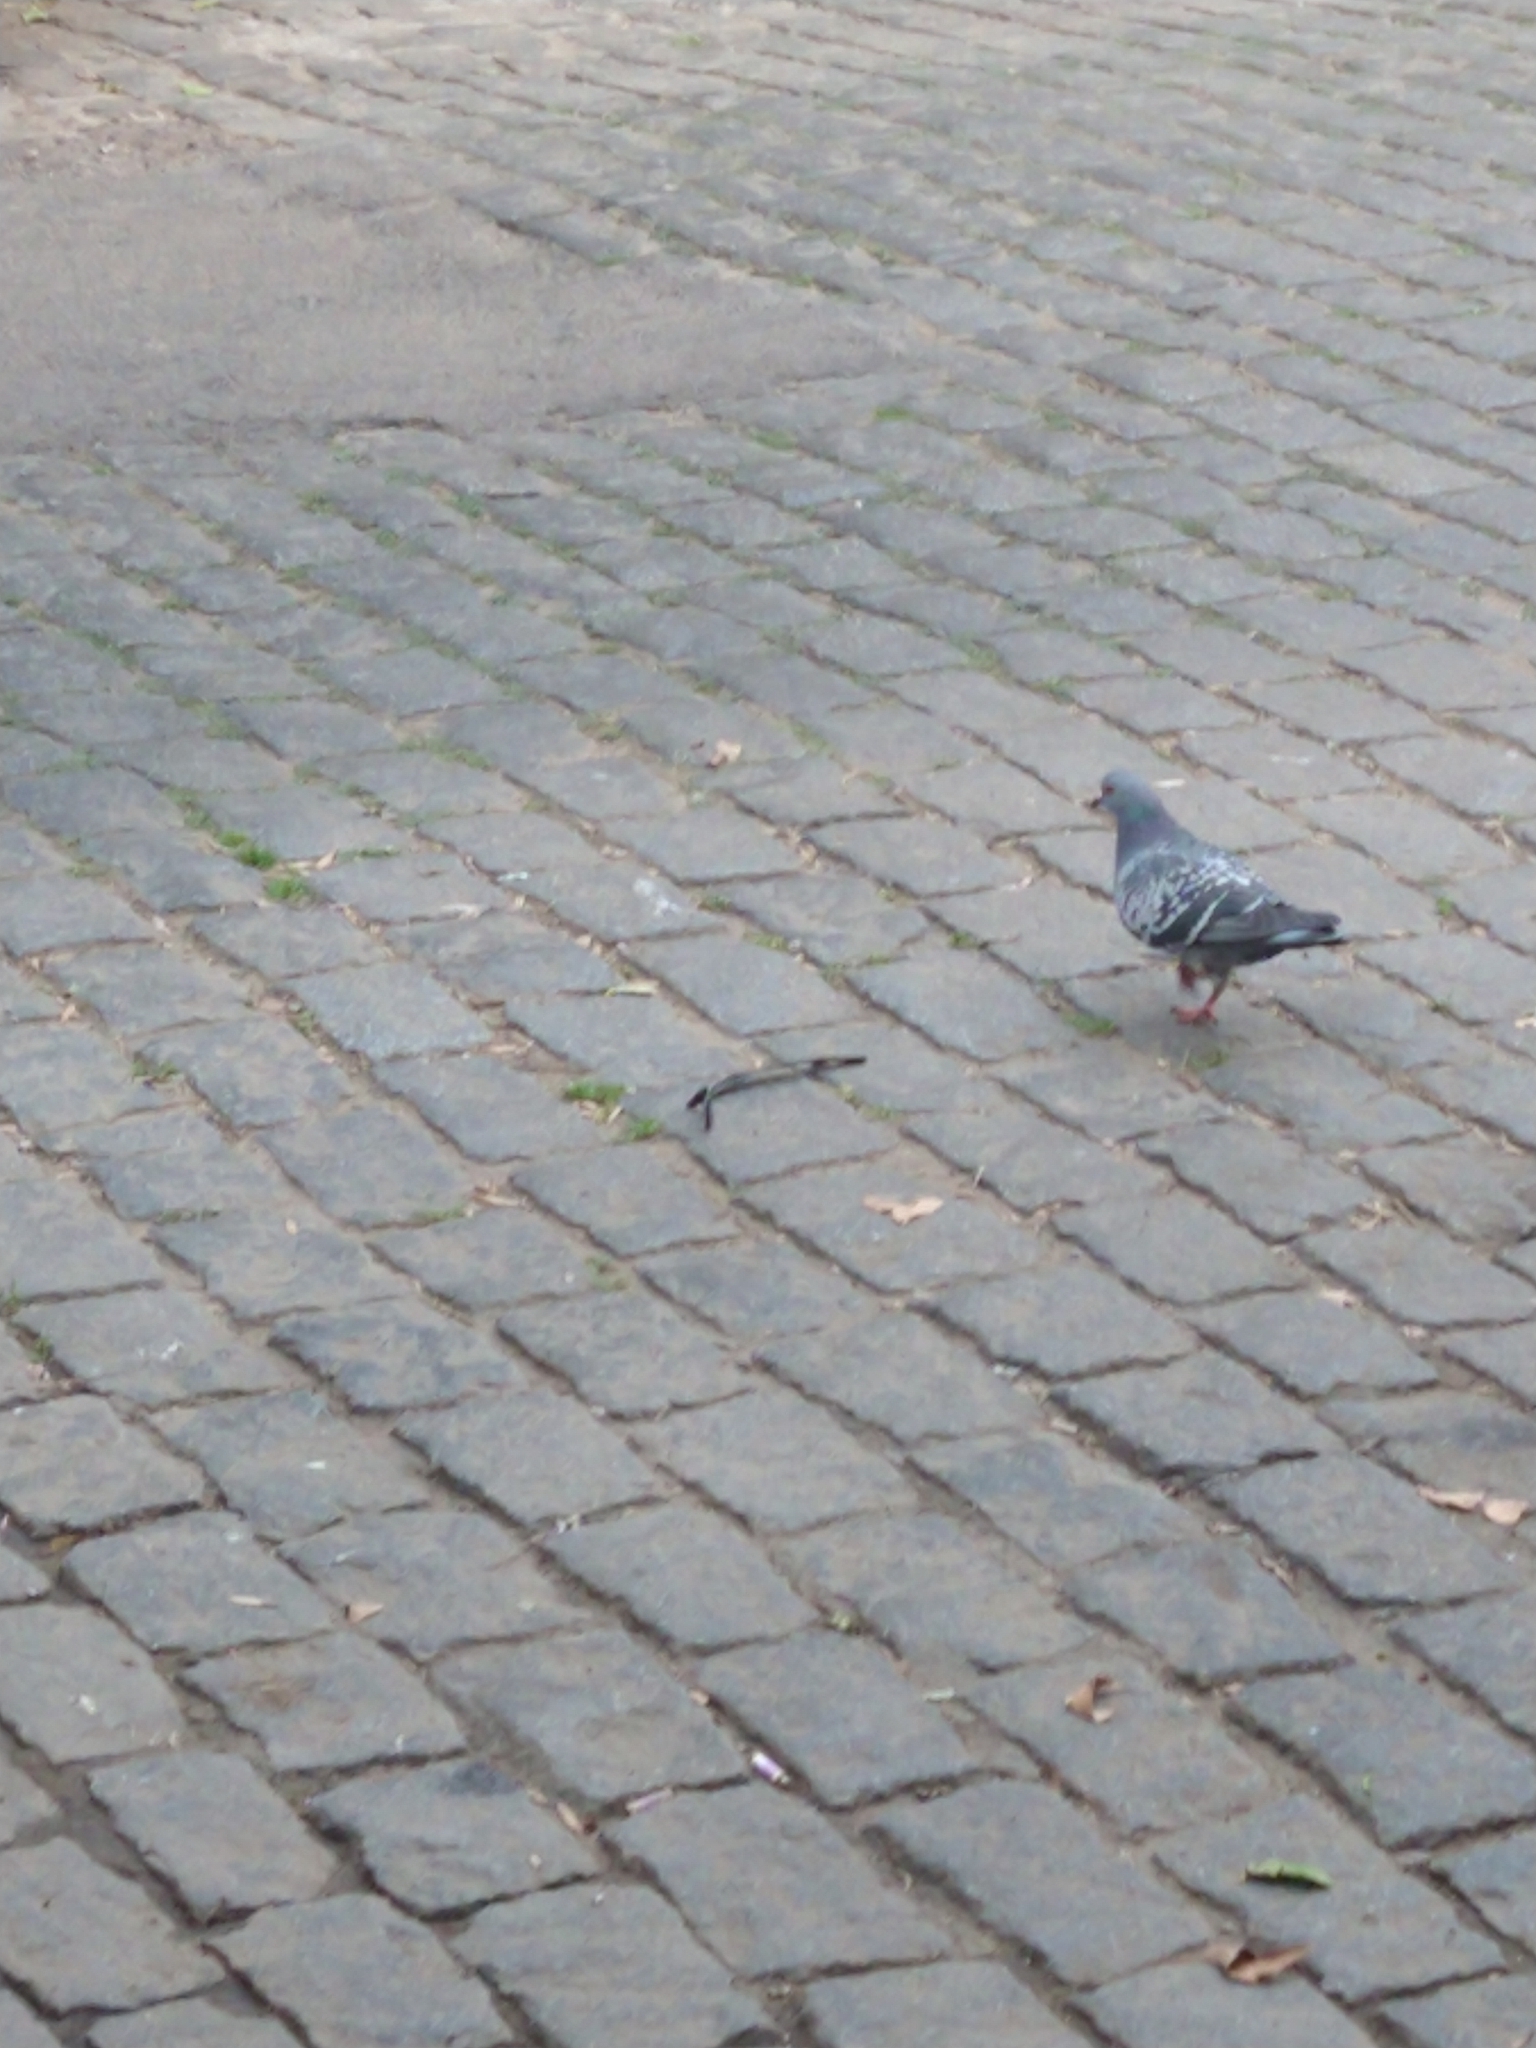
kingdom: Animalia
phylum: Chordata
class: Aves
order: Columbiformes
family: Columbidae
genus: Columba
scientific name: Columba livia
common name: Rock pigeon
